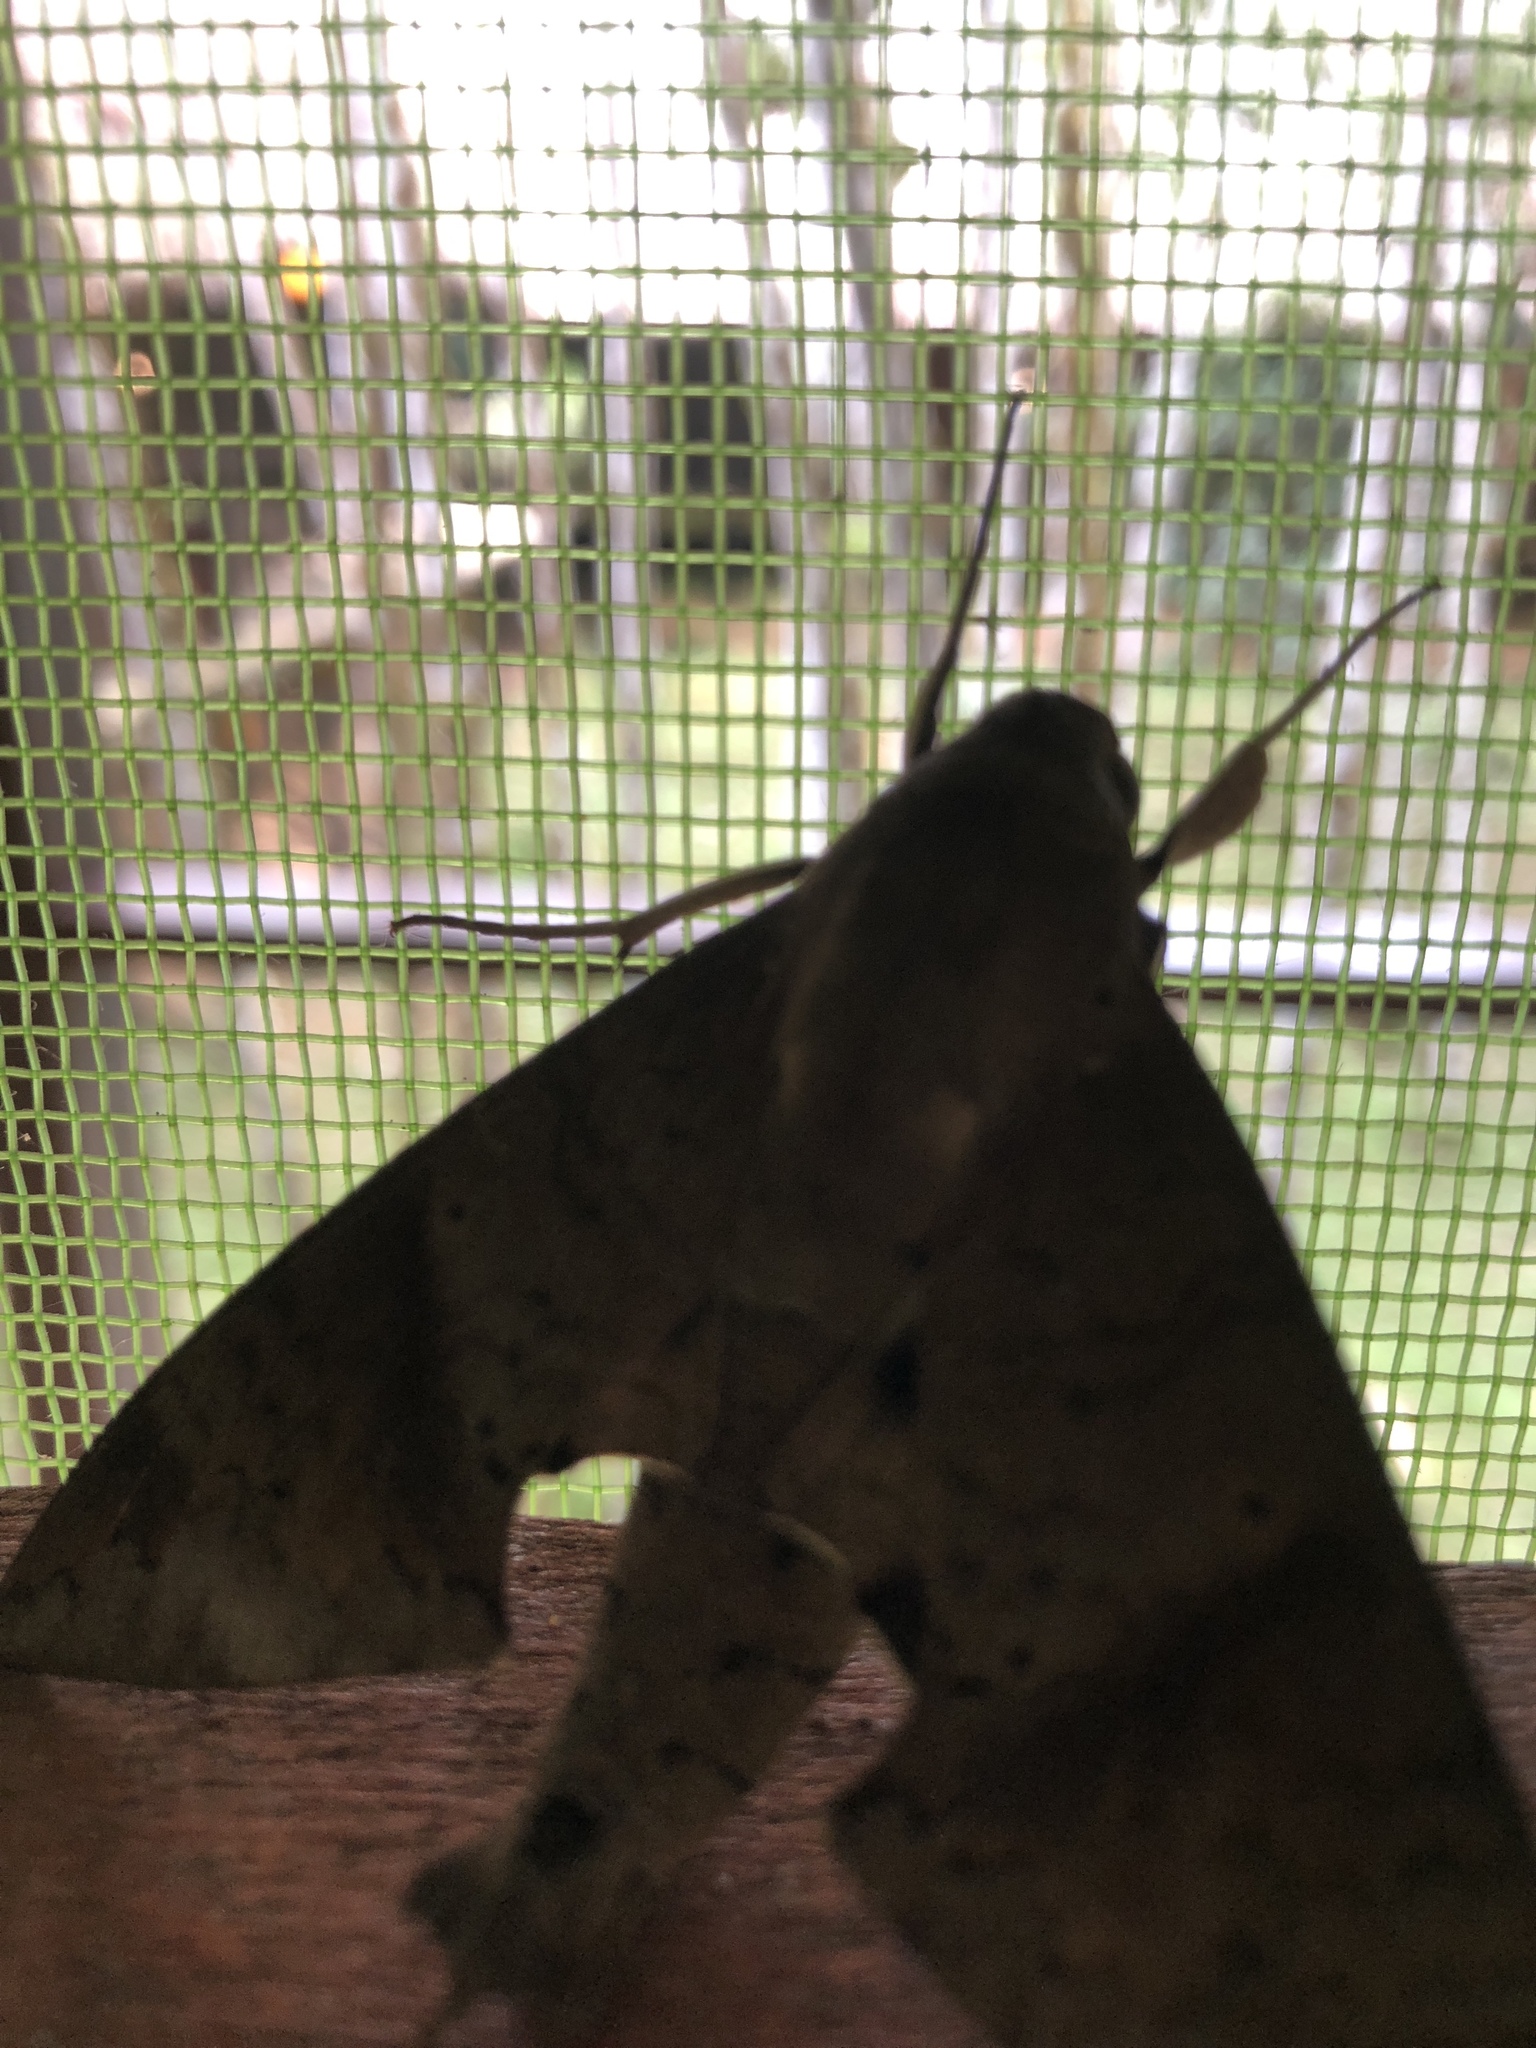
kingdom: Animalia
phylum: Arthropoda
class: Insecta
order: Lepidoptera
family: Sphingidae
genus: Pachylioides
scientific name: Pachylioides resumens
